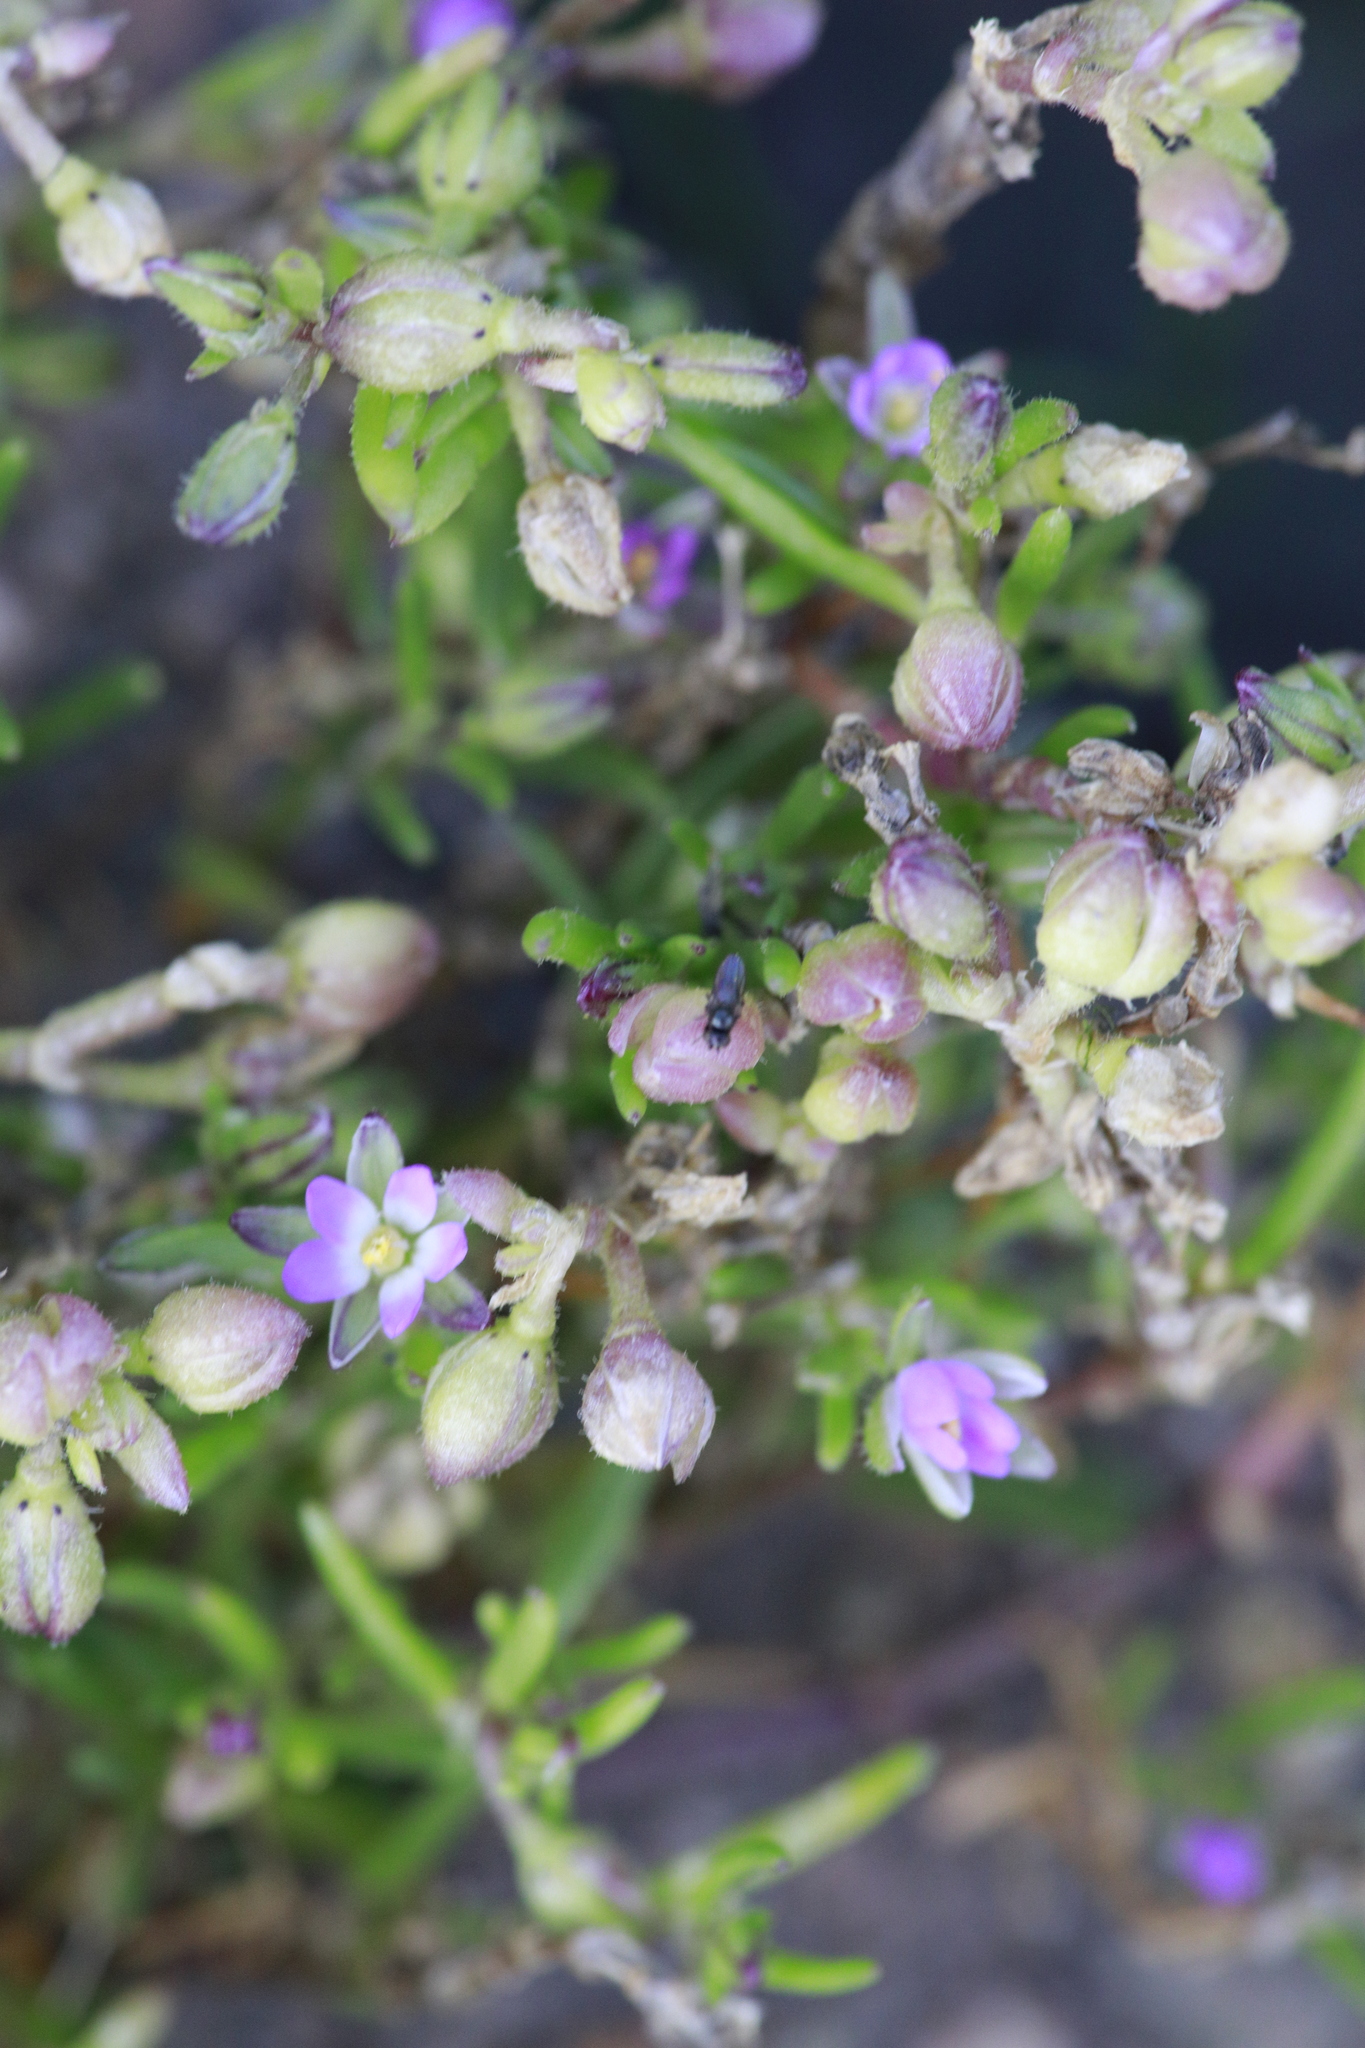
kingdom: Plantae
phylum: Tracheophyta
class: Magnoliopsida
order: Caryophyllales
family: Caryophyllaceae
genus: Spergularia
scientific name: Spergularia marina
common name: Lesser sea-spurrey
